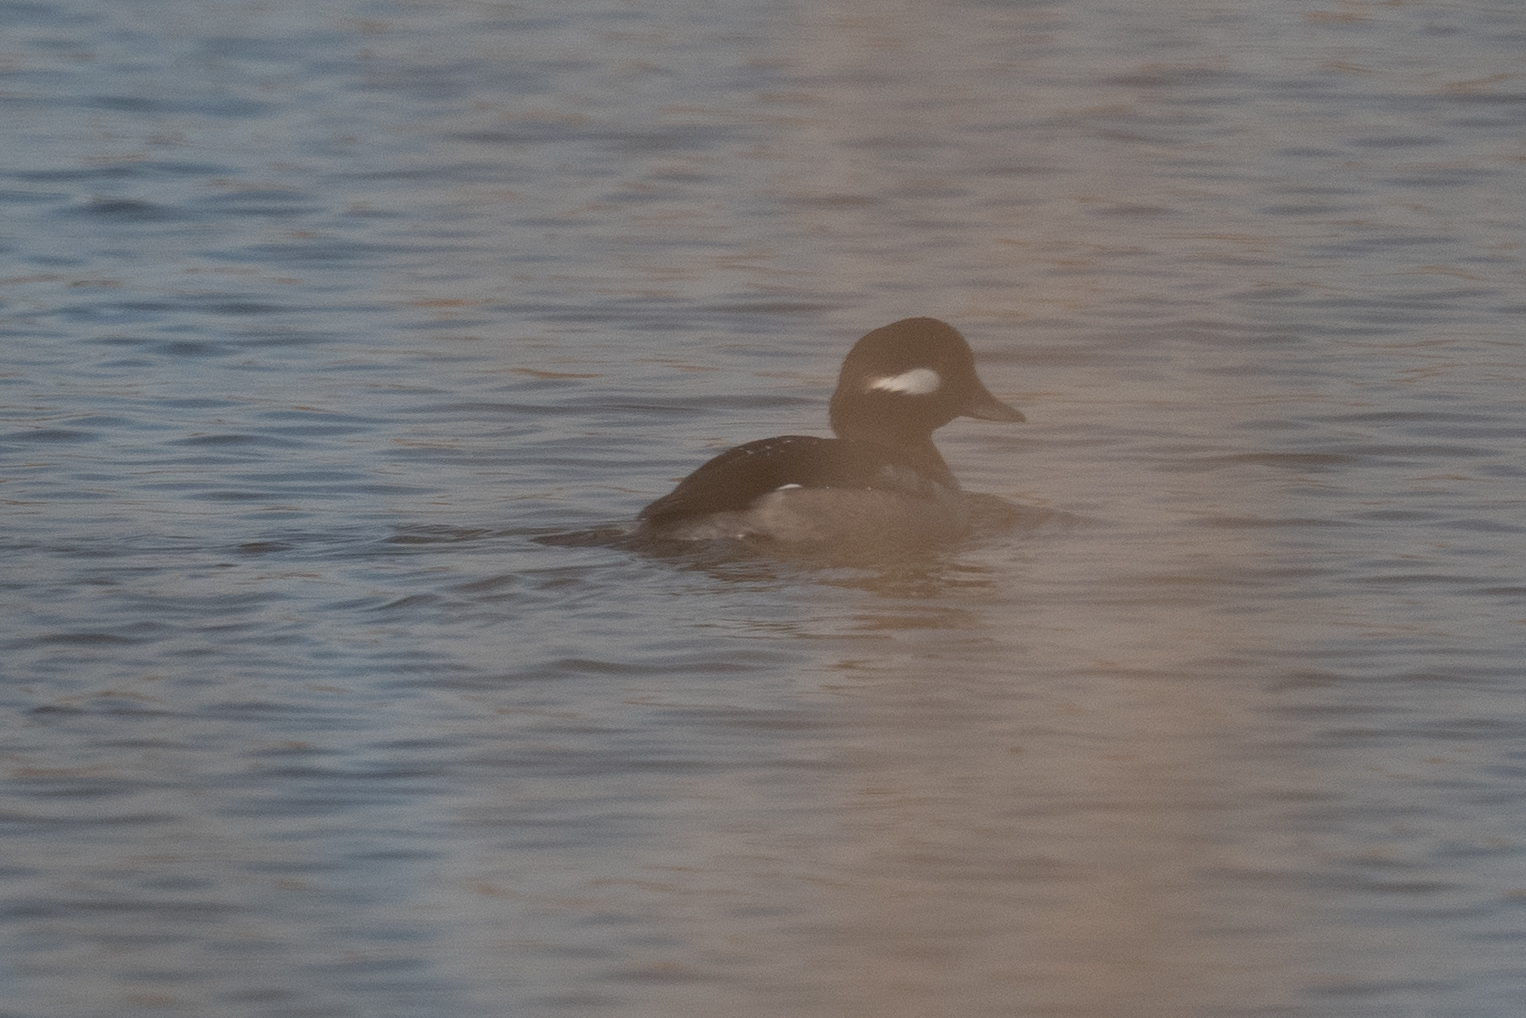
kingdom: Animalia
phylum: Chordata
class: Aves
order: Anseriformes
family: Anatidae
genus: Bucephala
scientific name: Bucephala albeola
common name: Bufflehead
